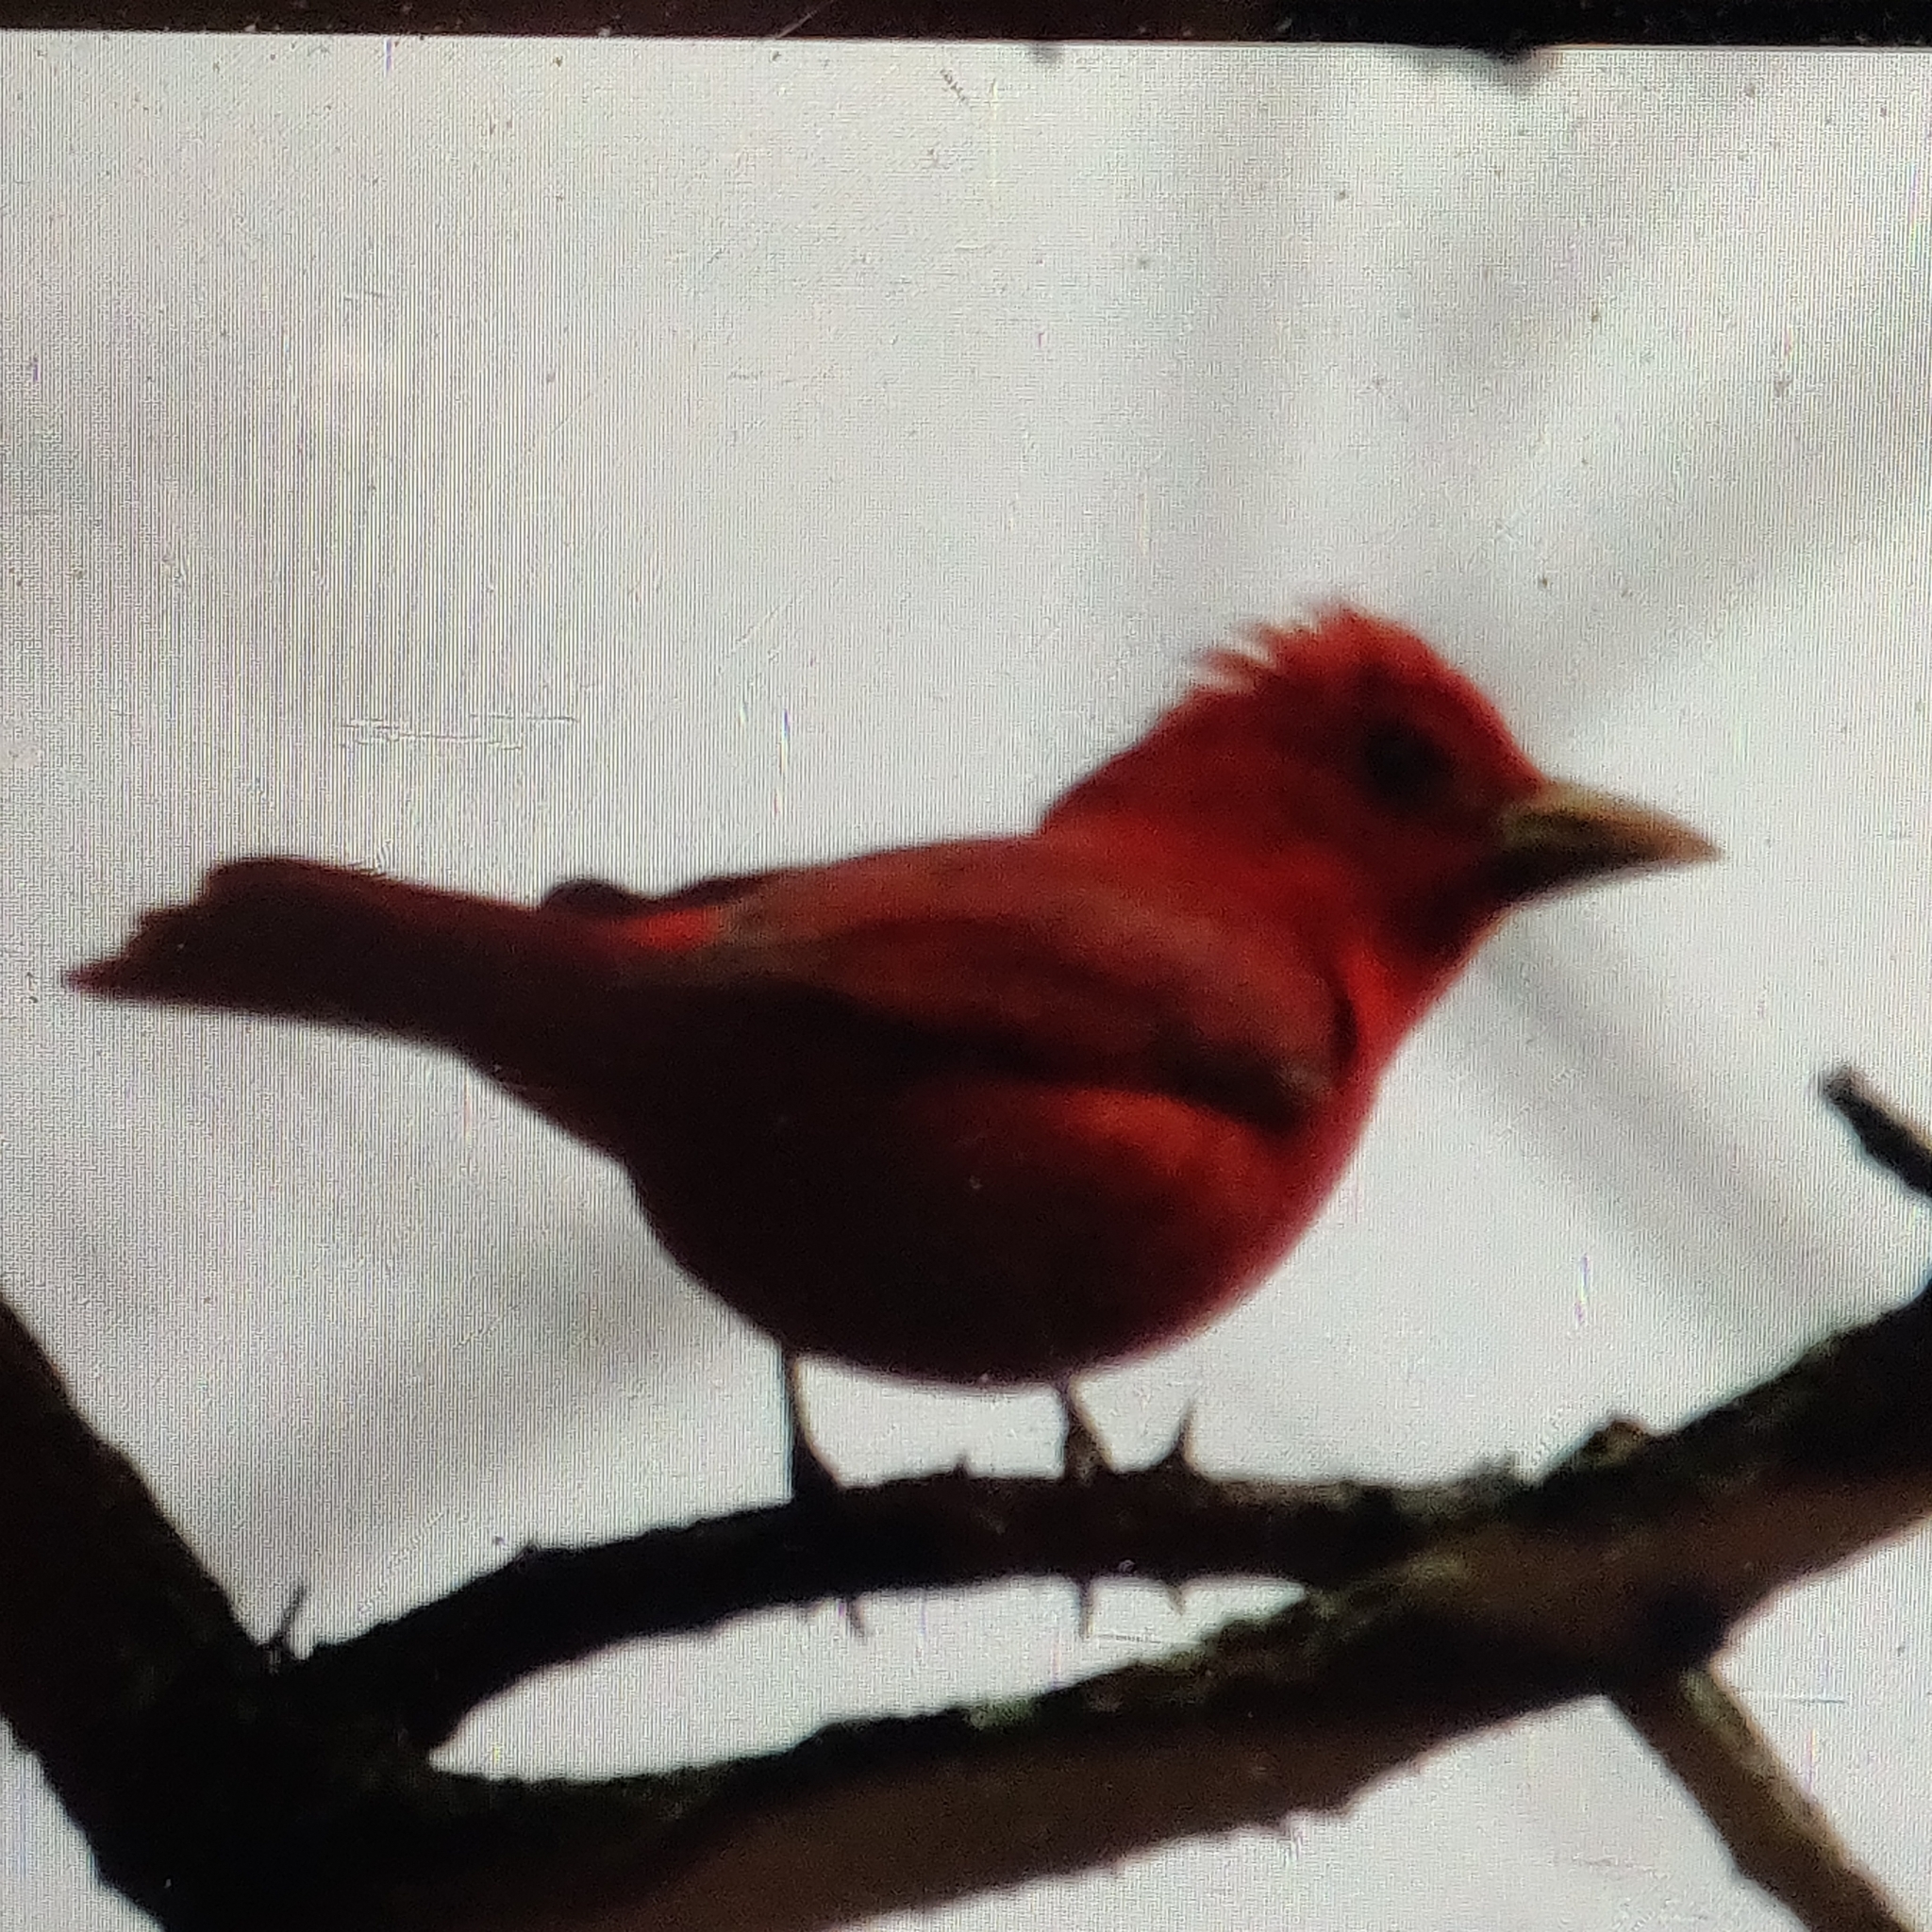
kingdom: Animalia
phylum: Chordata
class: Aves
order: Passeriformes
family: Cardinalidae
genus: Piranga
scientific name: Piranga rubra
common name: Summer tanager
